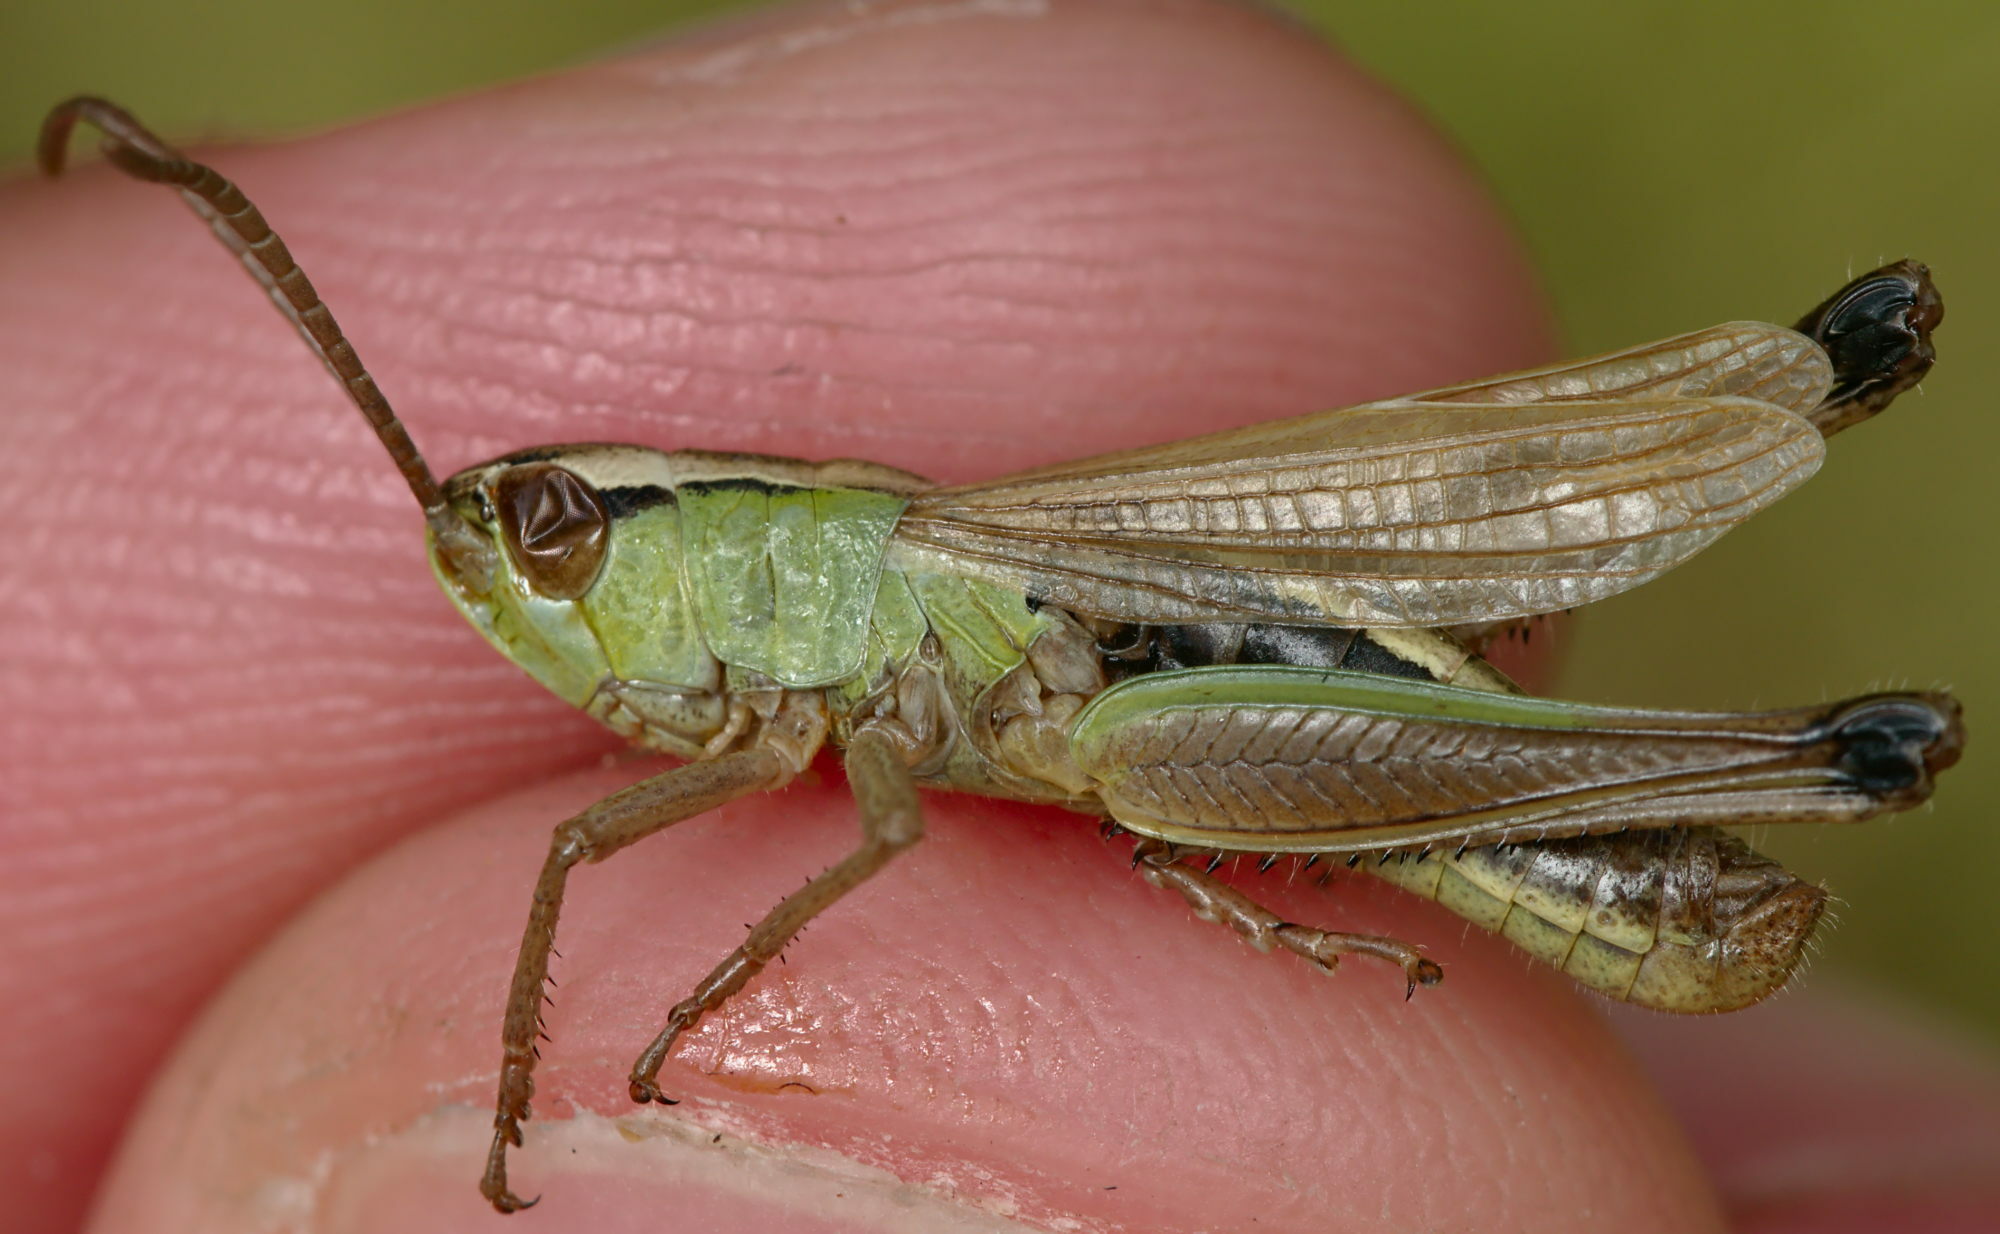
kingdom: Animalia
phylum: Arthropoda
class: Insecta
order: Orthoptera
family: Acrididae
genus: Pseudochorthippus
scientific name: Pseudochorthippus parallelus
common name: Meadow grasshopper
